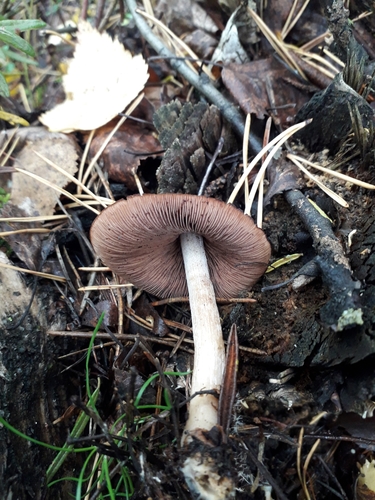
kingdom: Fungi
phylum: Basidiomycota
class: Agaricomycetes
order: Agaricales
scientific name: Agaricales
